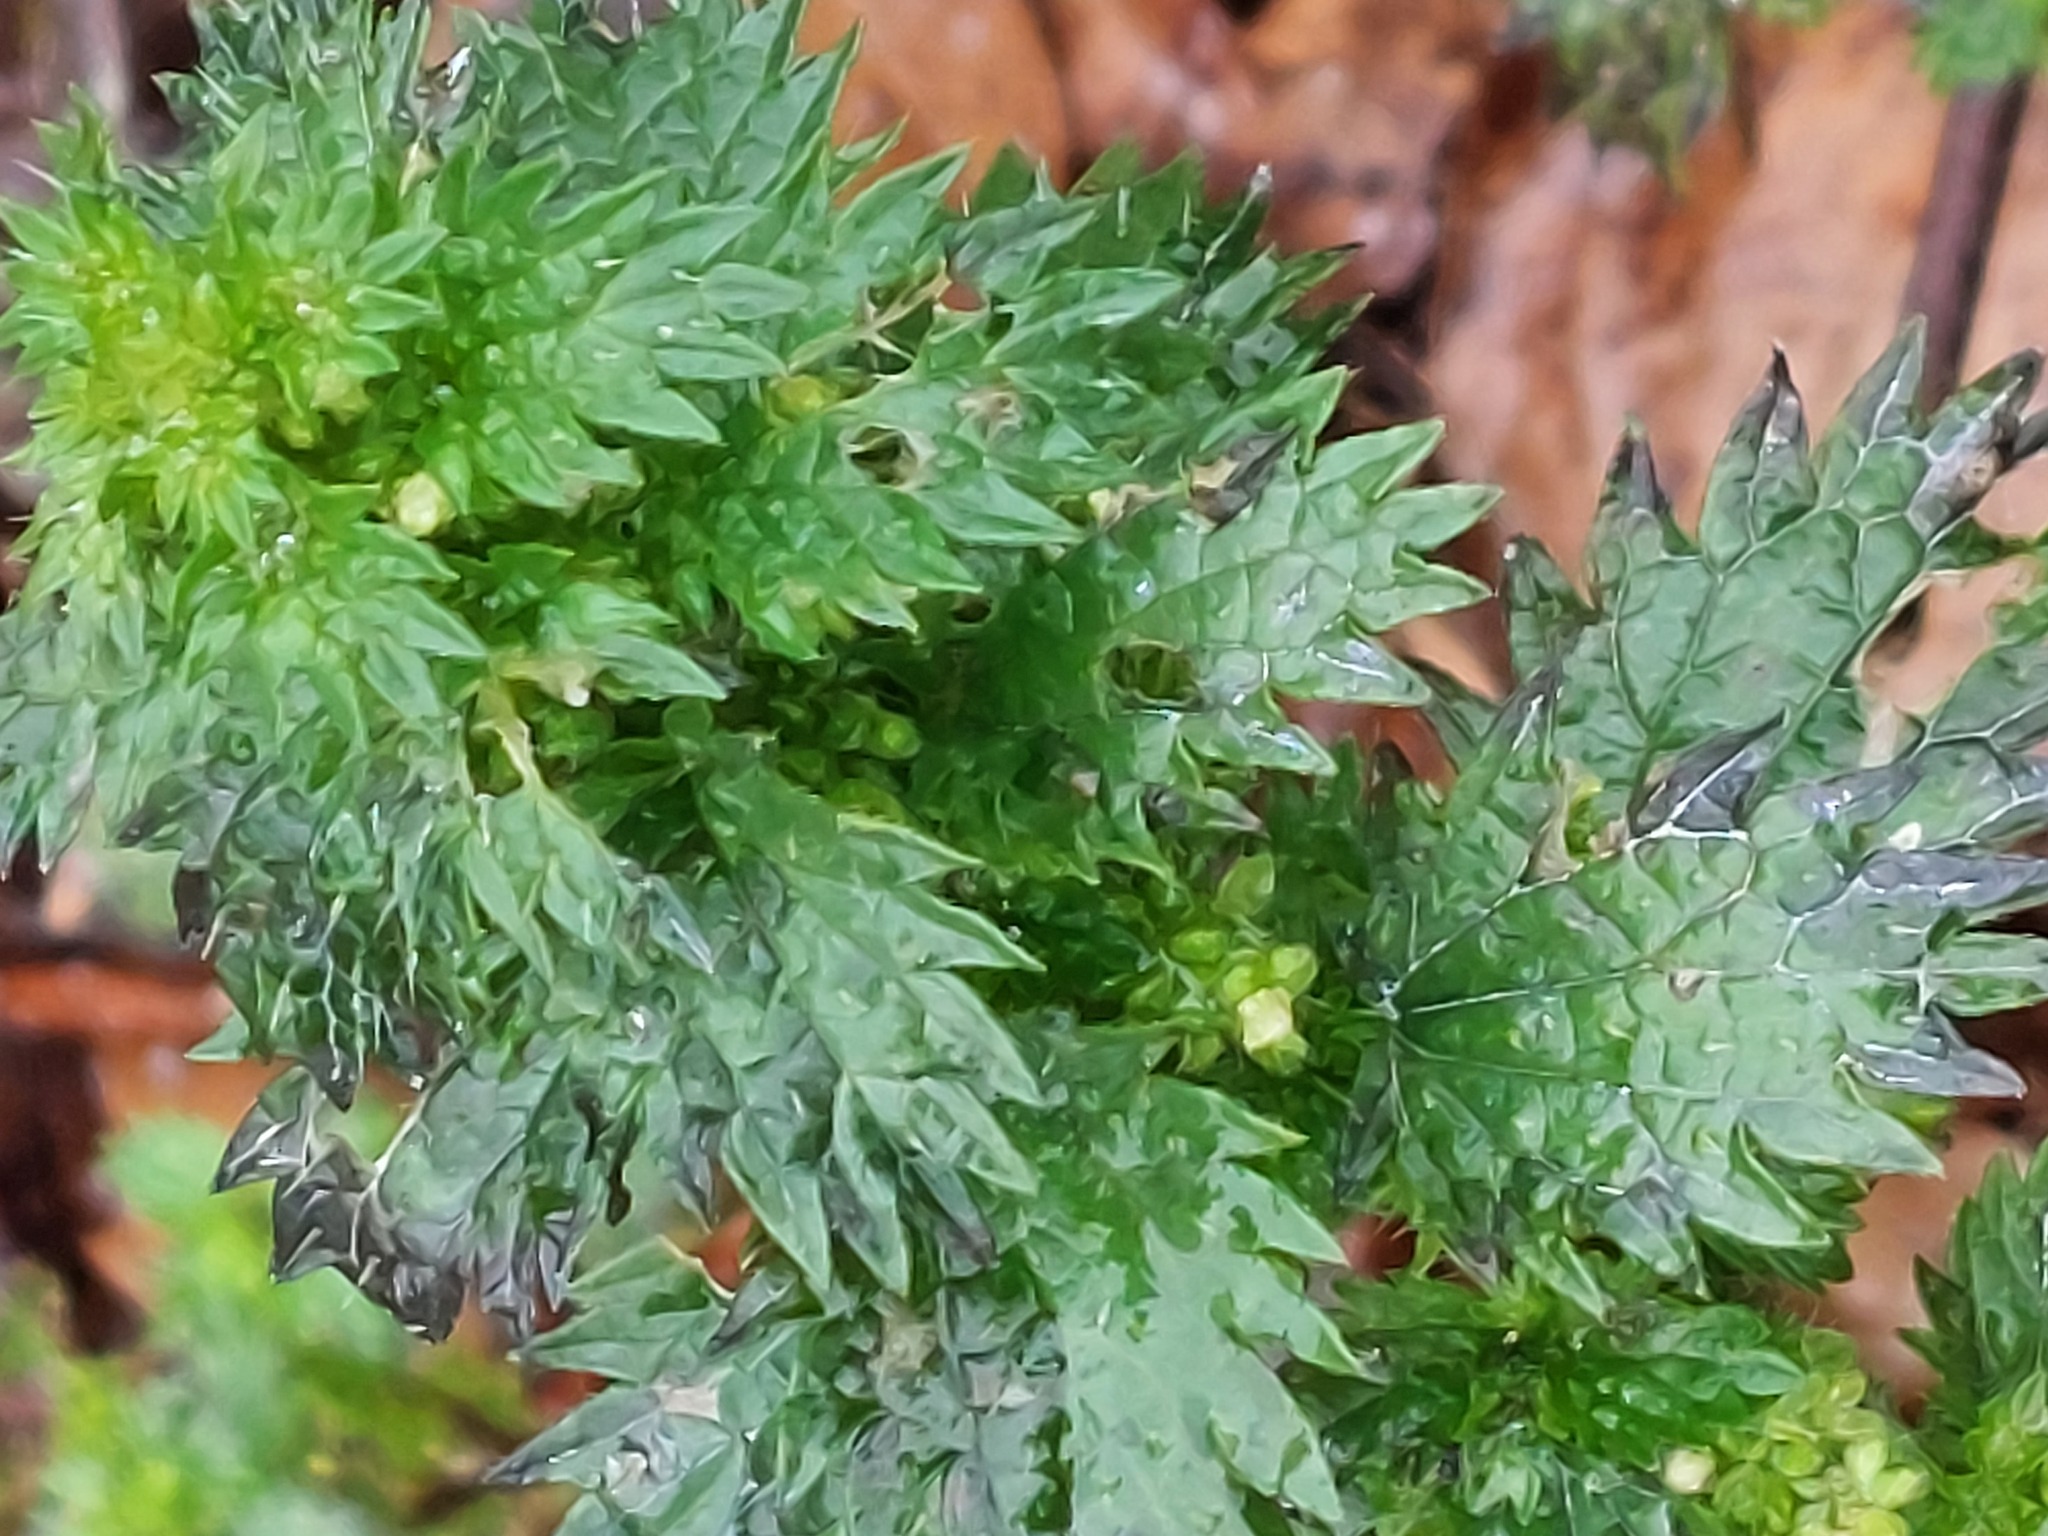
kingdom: Plantae
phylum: Tracheophyta
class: Magnoliopsida
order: Rosales
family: Urticaceae
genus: Urtica
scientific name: Urtica urens
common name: Dwarf nettle
